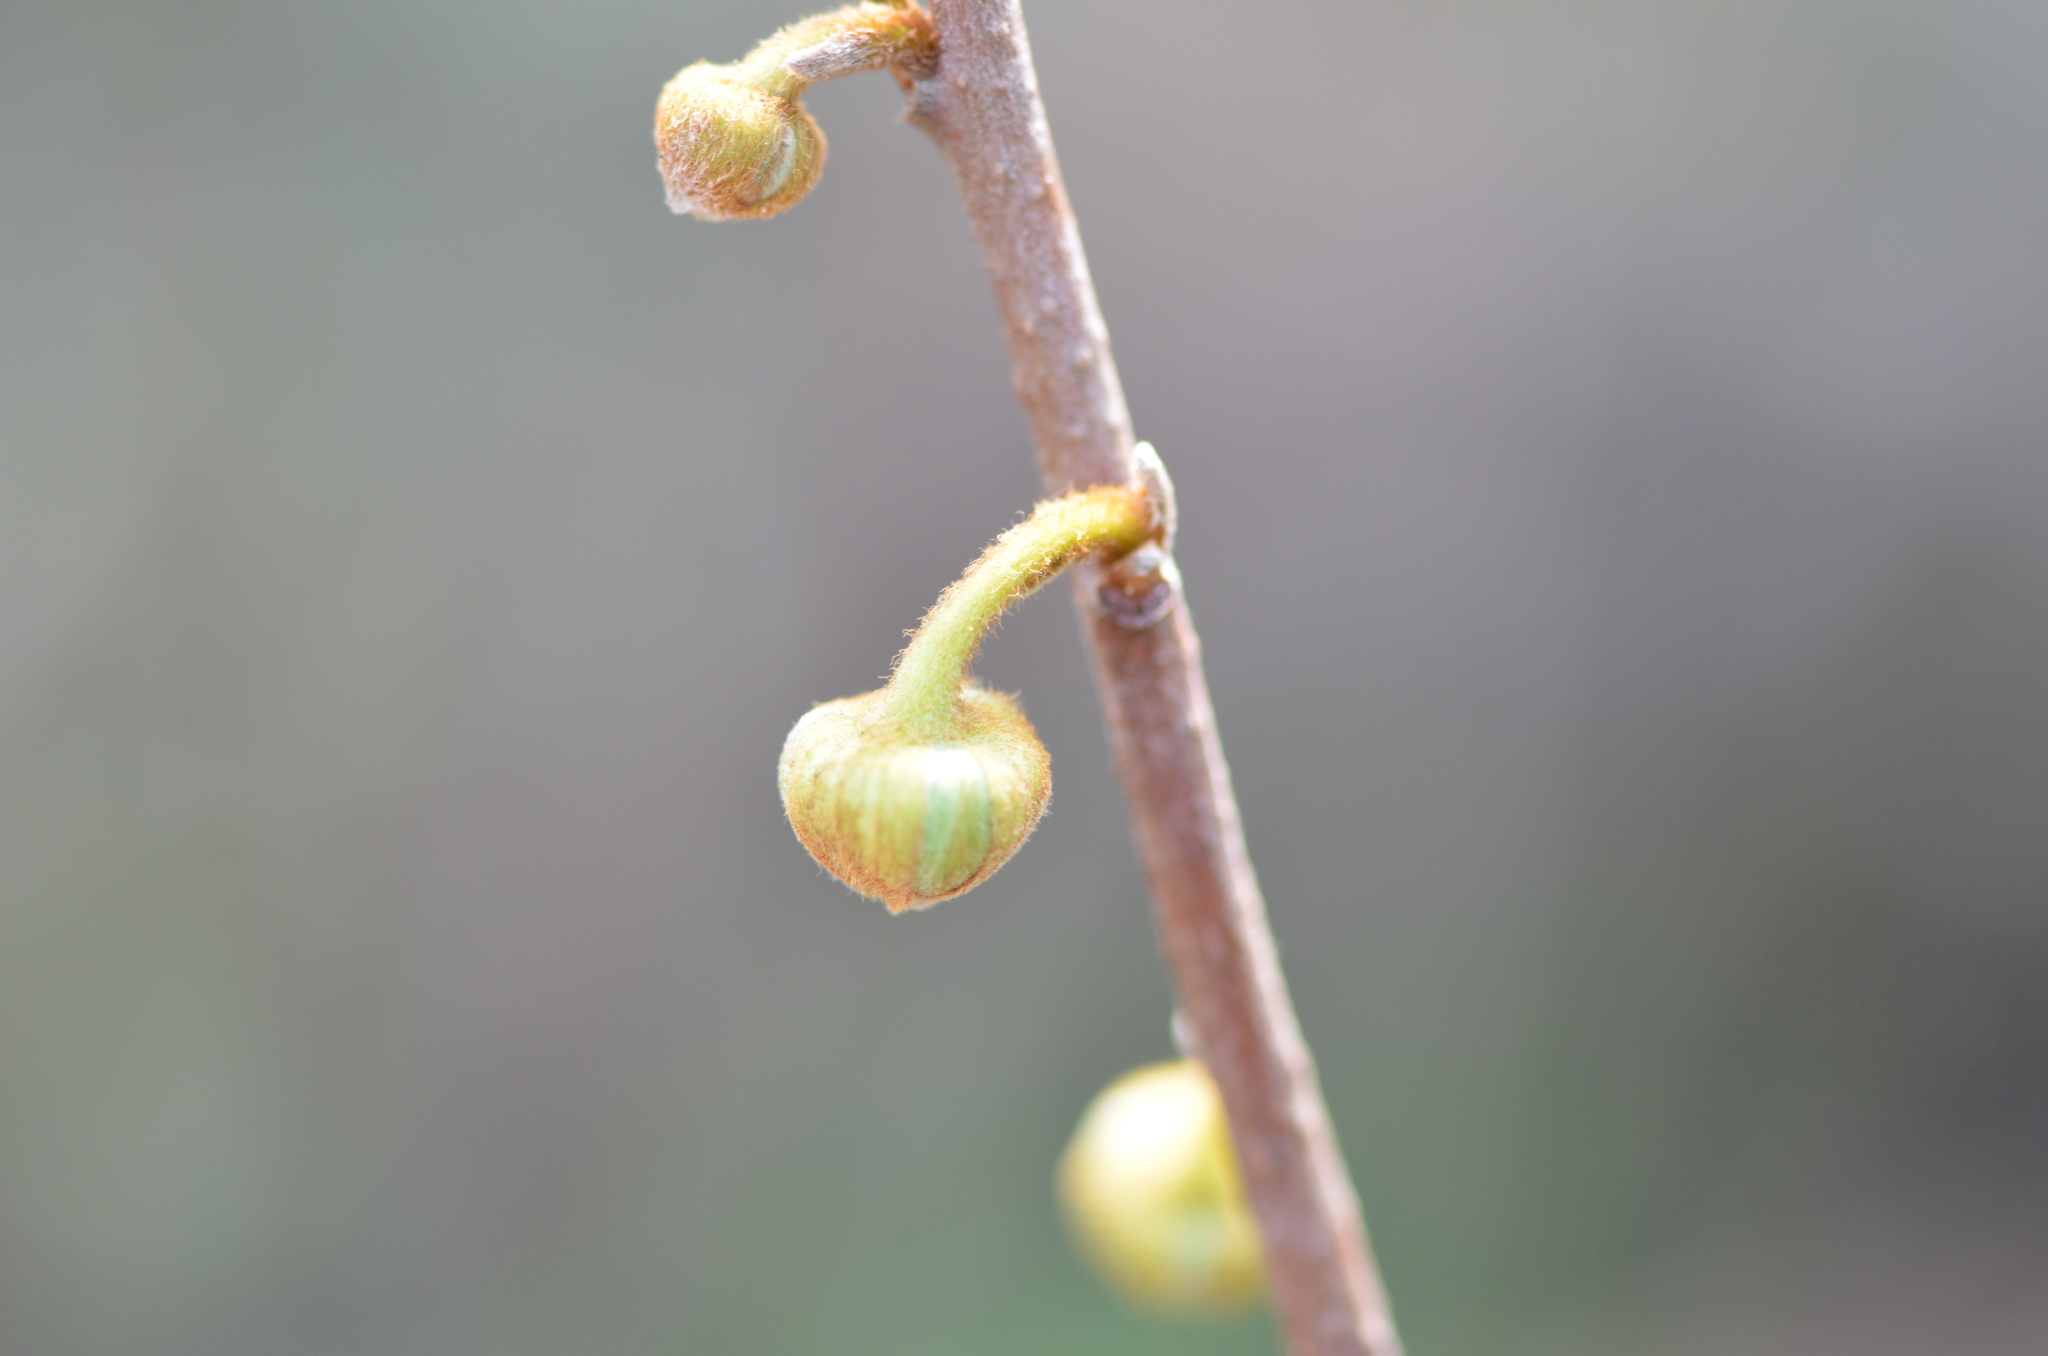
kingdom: Plantae
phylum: Tracheophyta
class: Magnoliopsida
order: Magnoliales
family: Annonaceae
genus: Asimina
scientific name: Asimina reticulata
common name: Flag pawpaw
